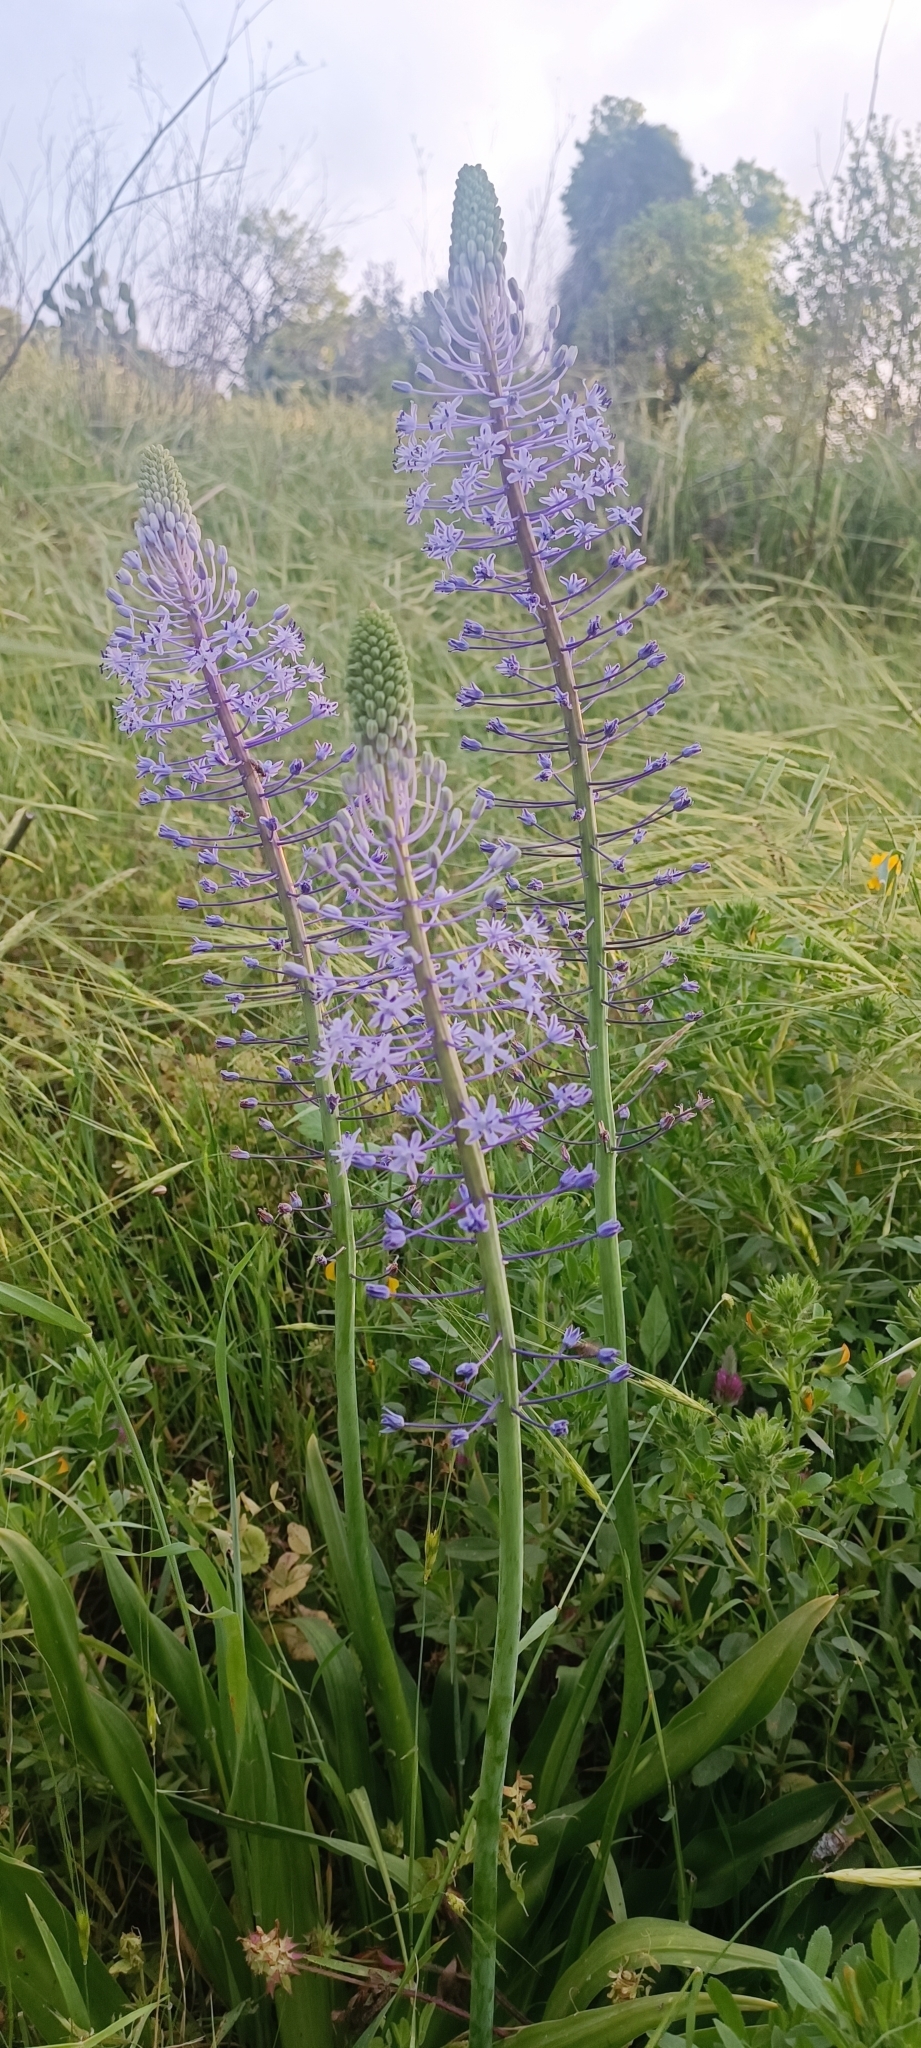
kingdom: Plantae
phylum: Tracheophyta
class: Liliopsida
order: Asparagales
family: Asparagaceae
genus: Scilla
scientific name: Scilla hyacinthoides
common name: Scilla
